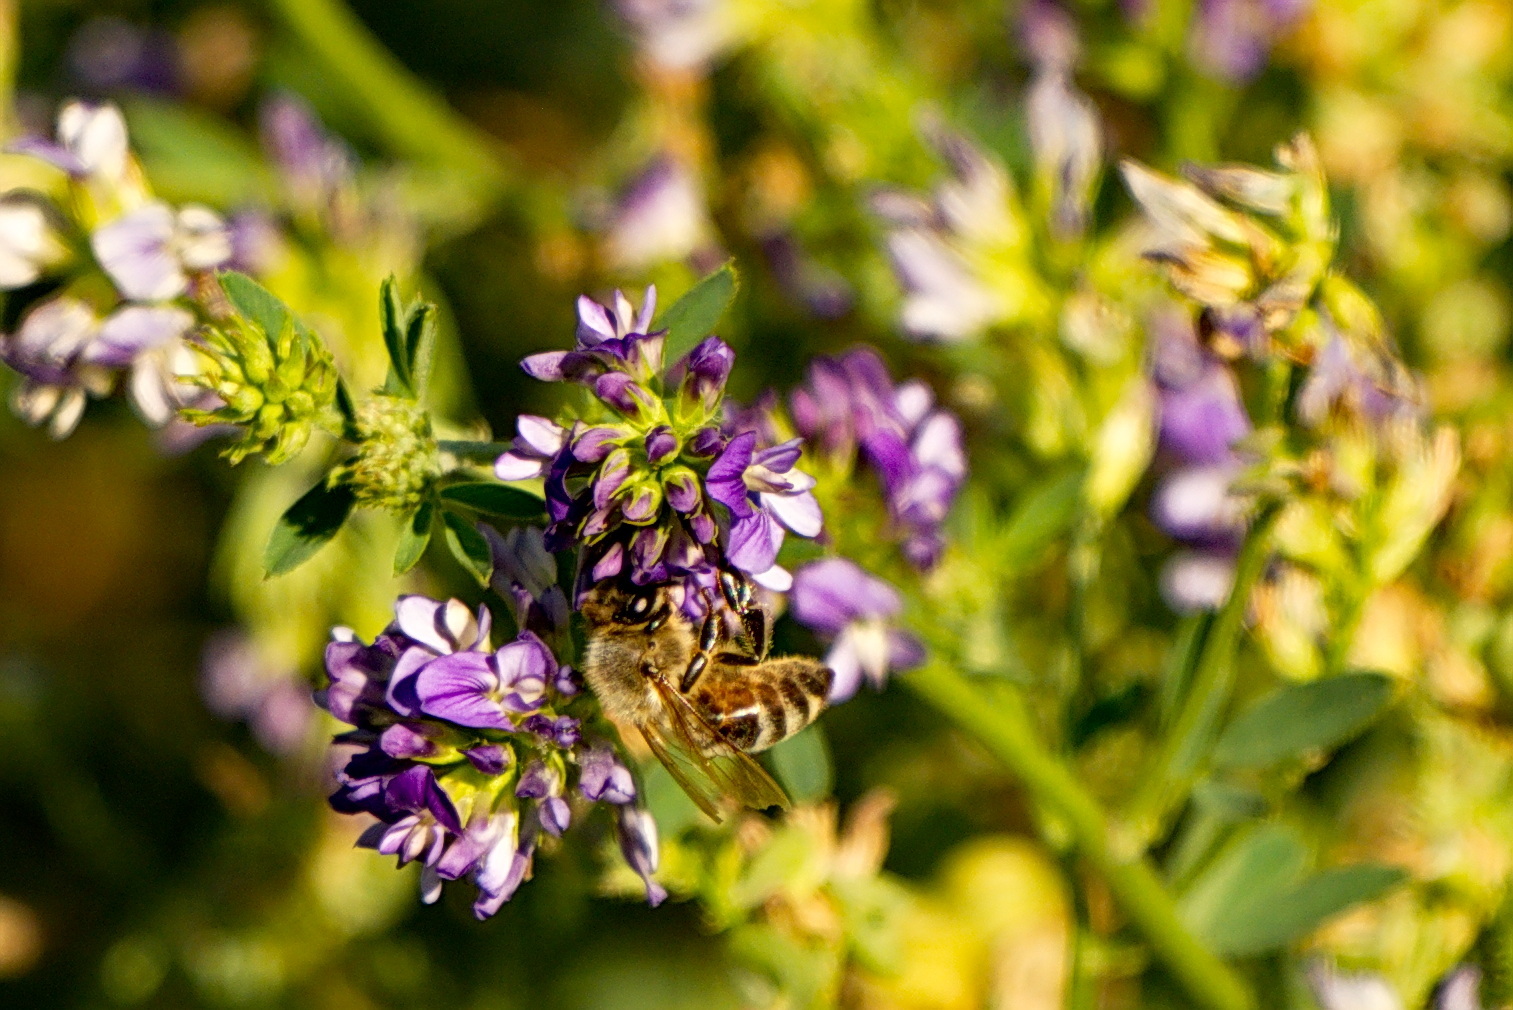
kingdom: Animalia
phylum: Arthropoda
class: Insecta
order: Hymenoptera
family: Apidae
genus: Apis
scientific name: Apis mellifera
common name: Honey bee
